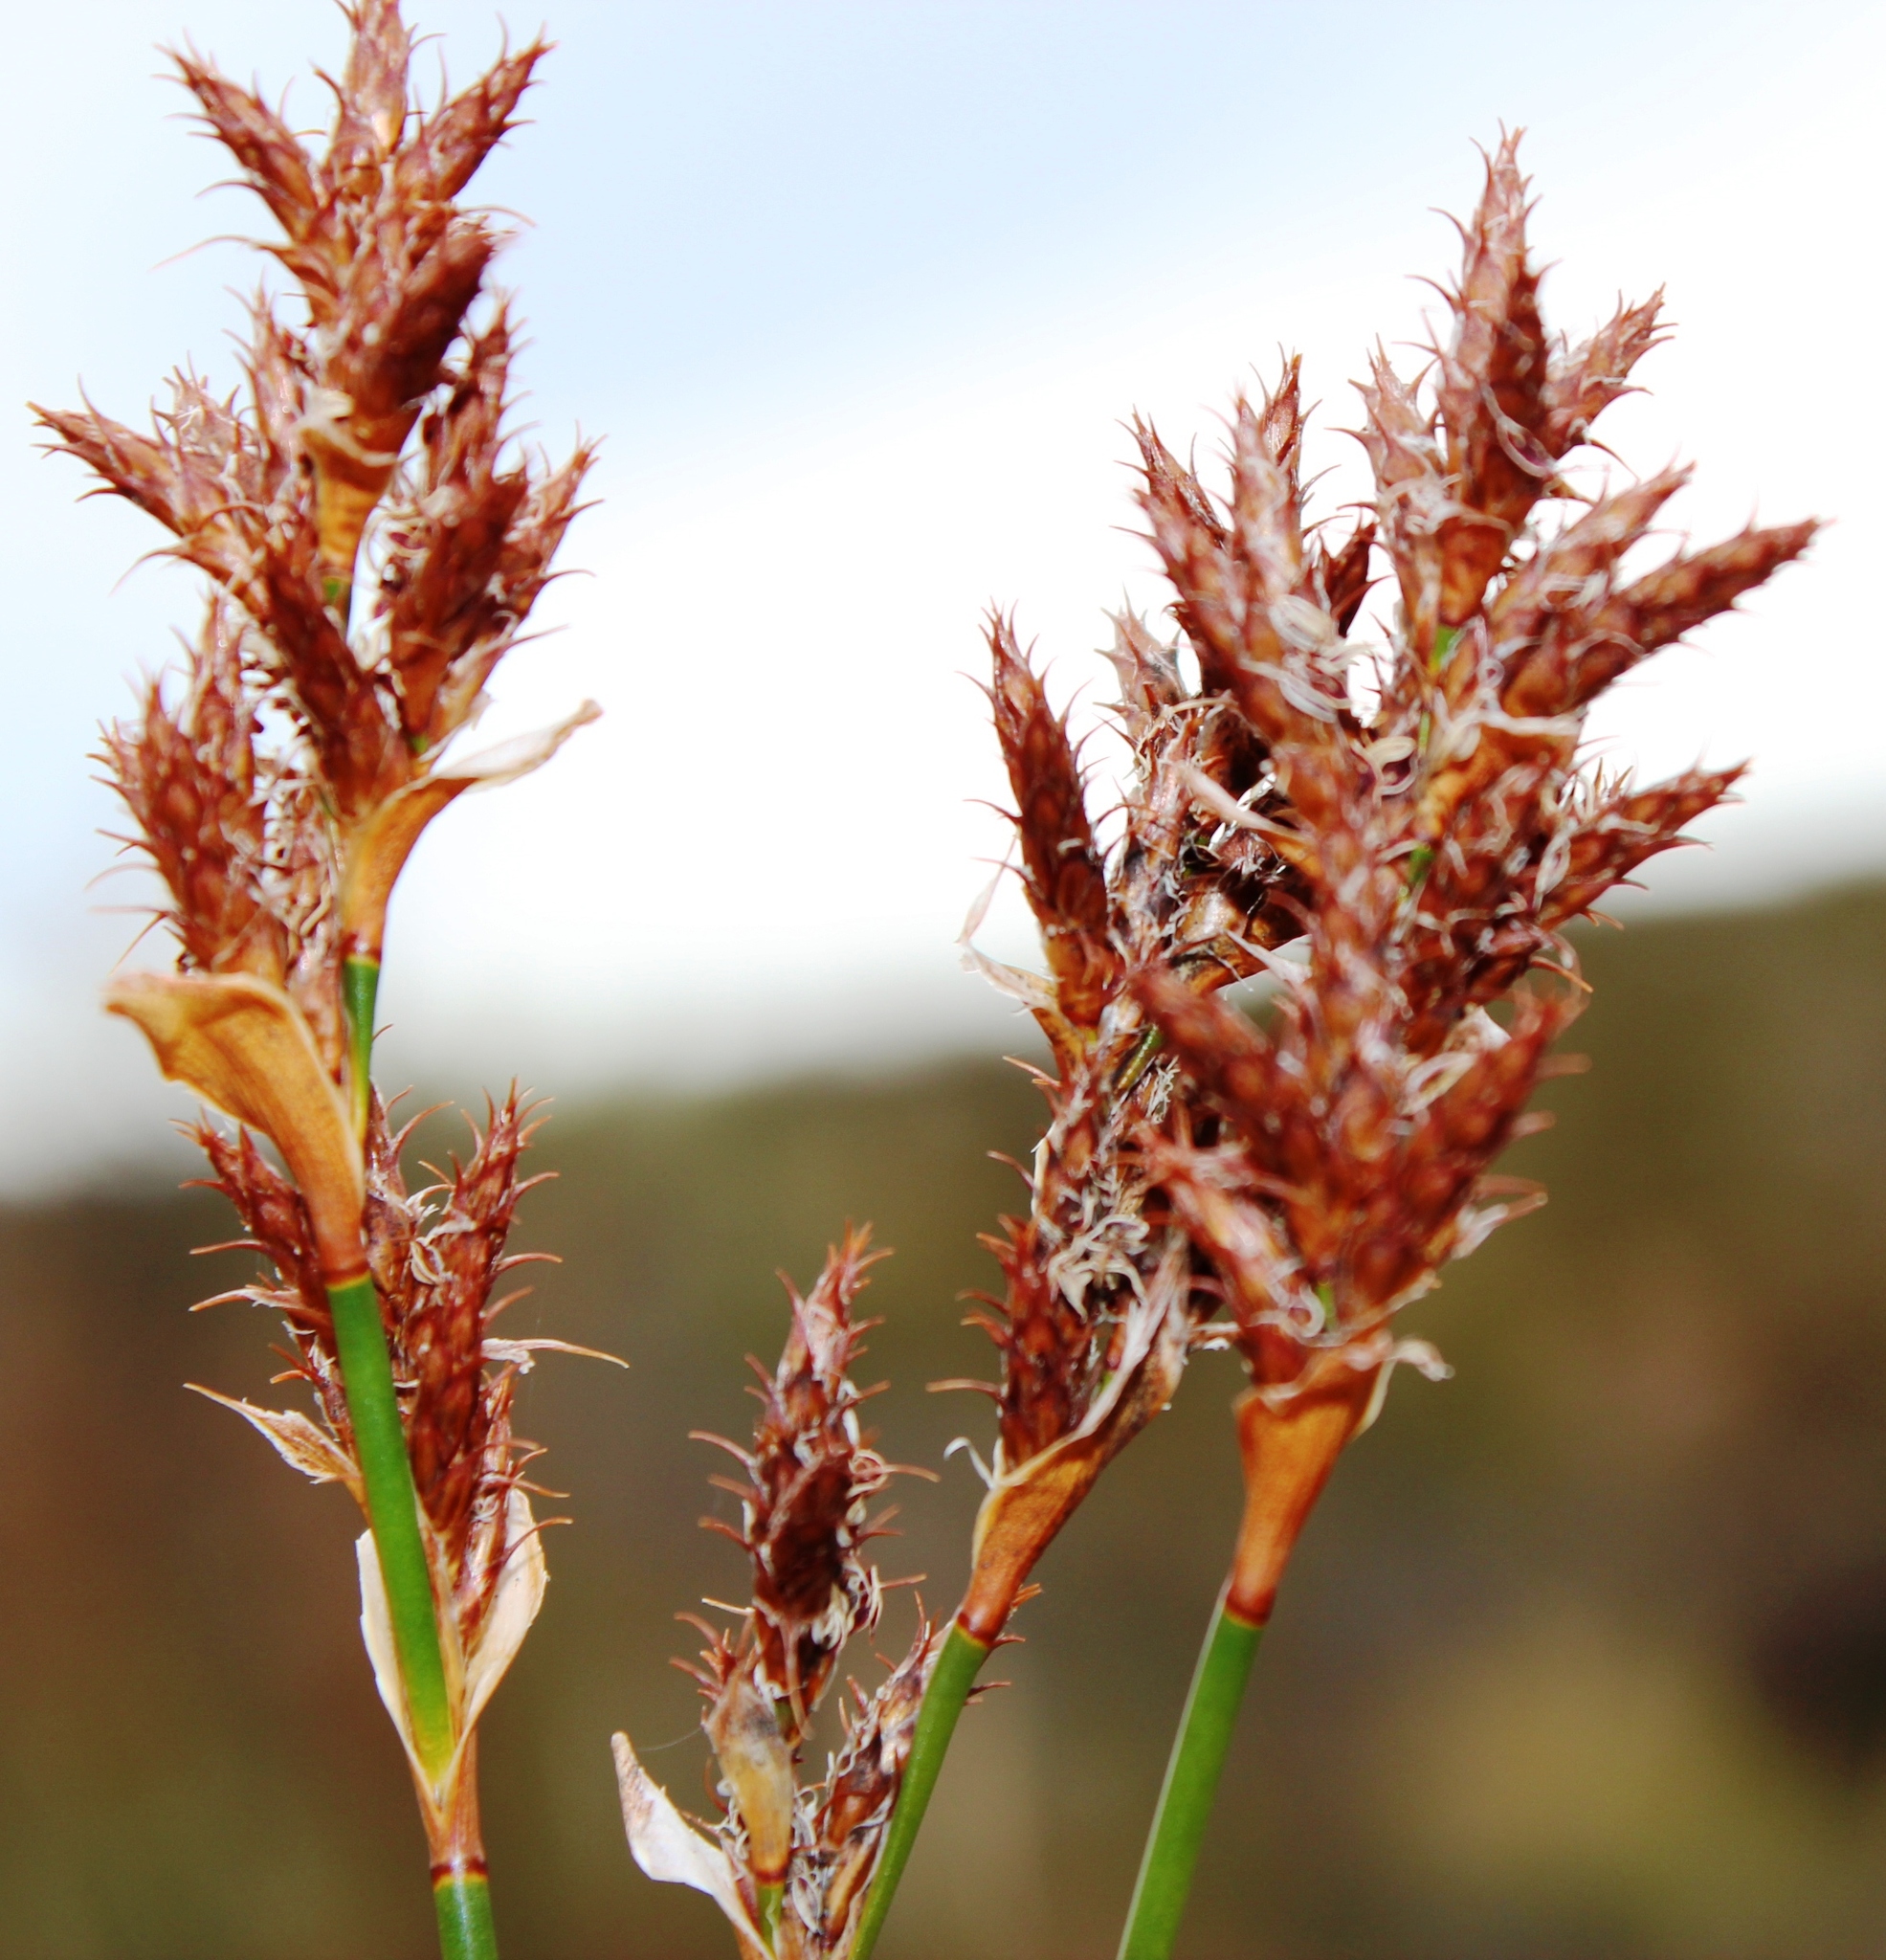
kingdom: Plantae
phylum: Tracheophyta
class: Liliopsida
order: Poales
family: Restionaceae
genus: Restio
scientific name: Restio ocreatus
